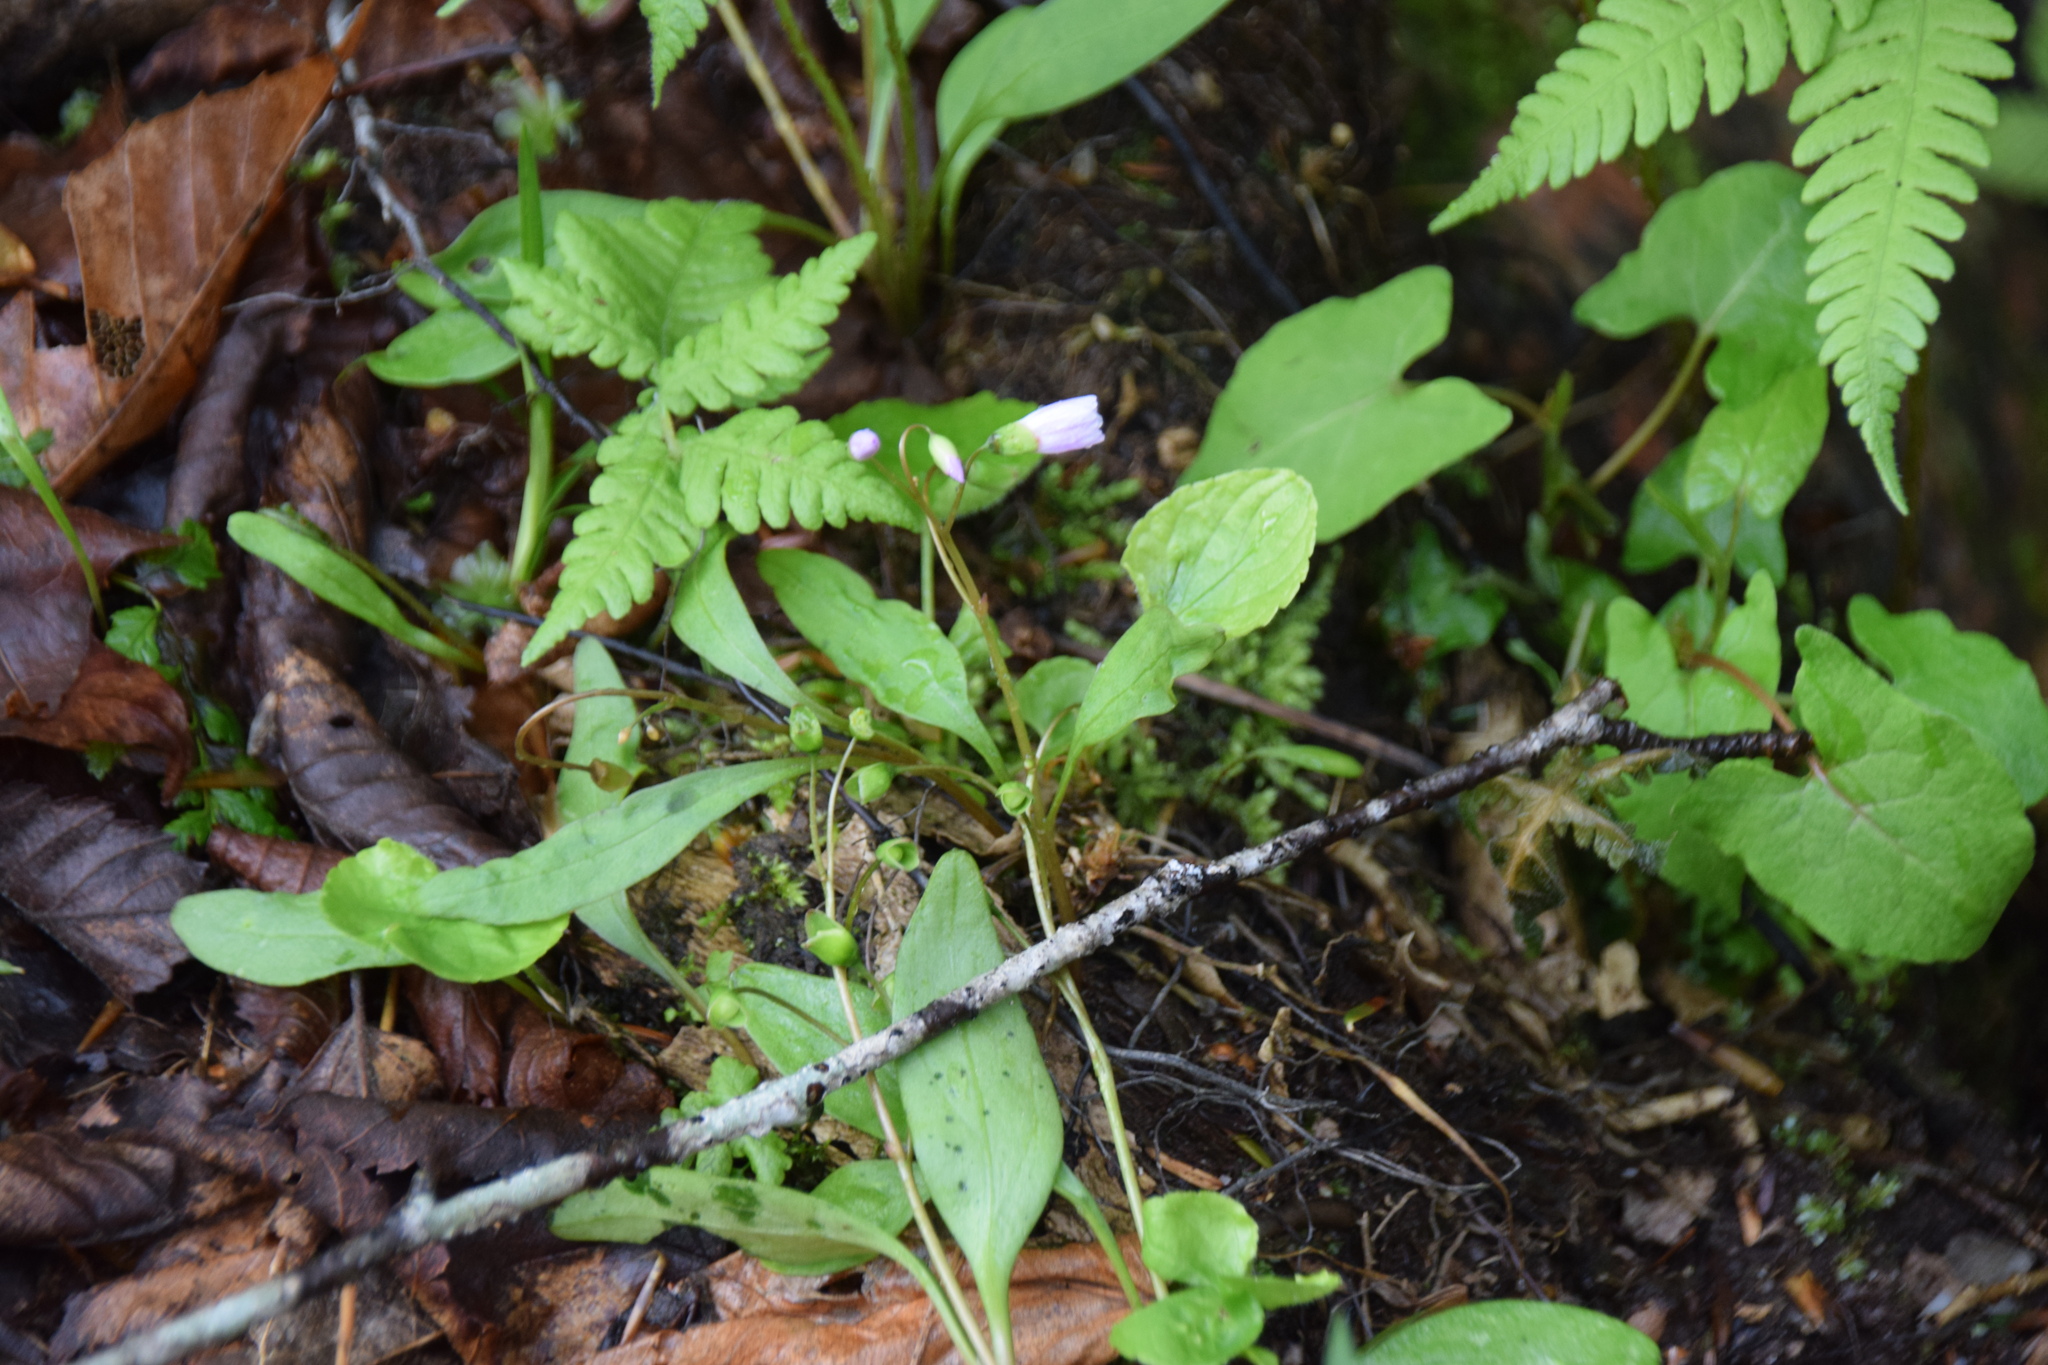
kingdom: Plantae
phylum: Tracheophyta
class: Magnoliopsida
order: Caryophyllales
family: Montiaceae
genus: Claytonia
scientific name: Claytonia caroliniana
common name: Carolina spring beauty
